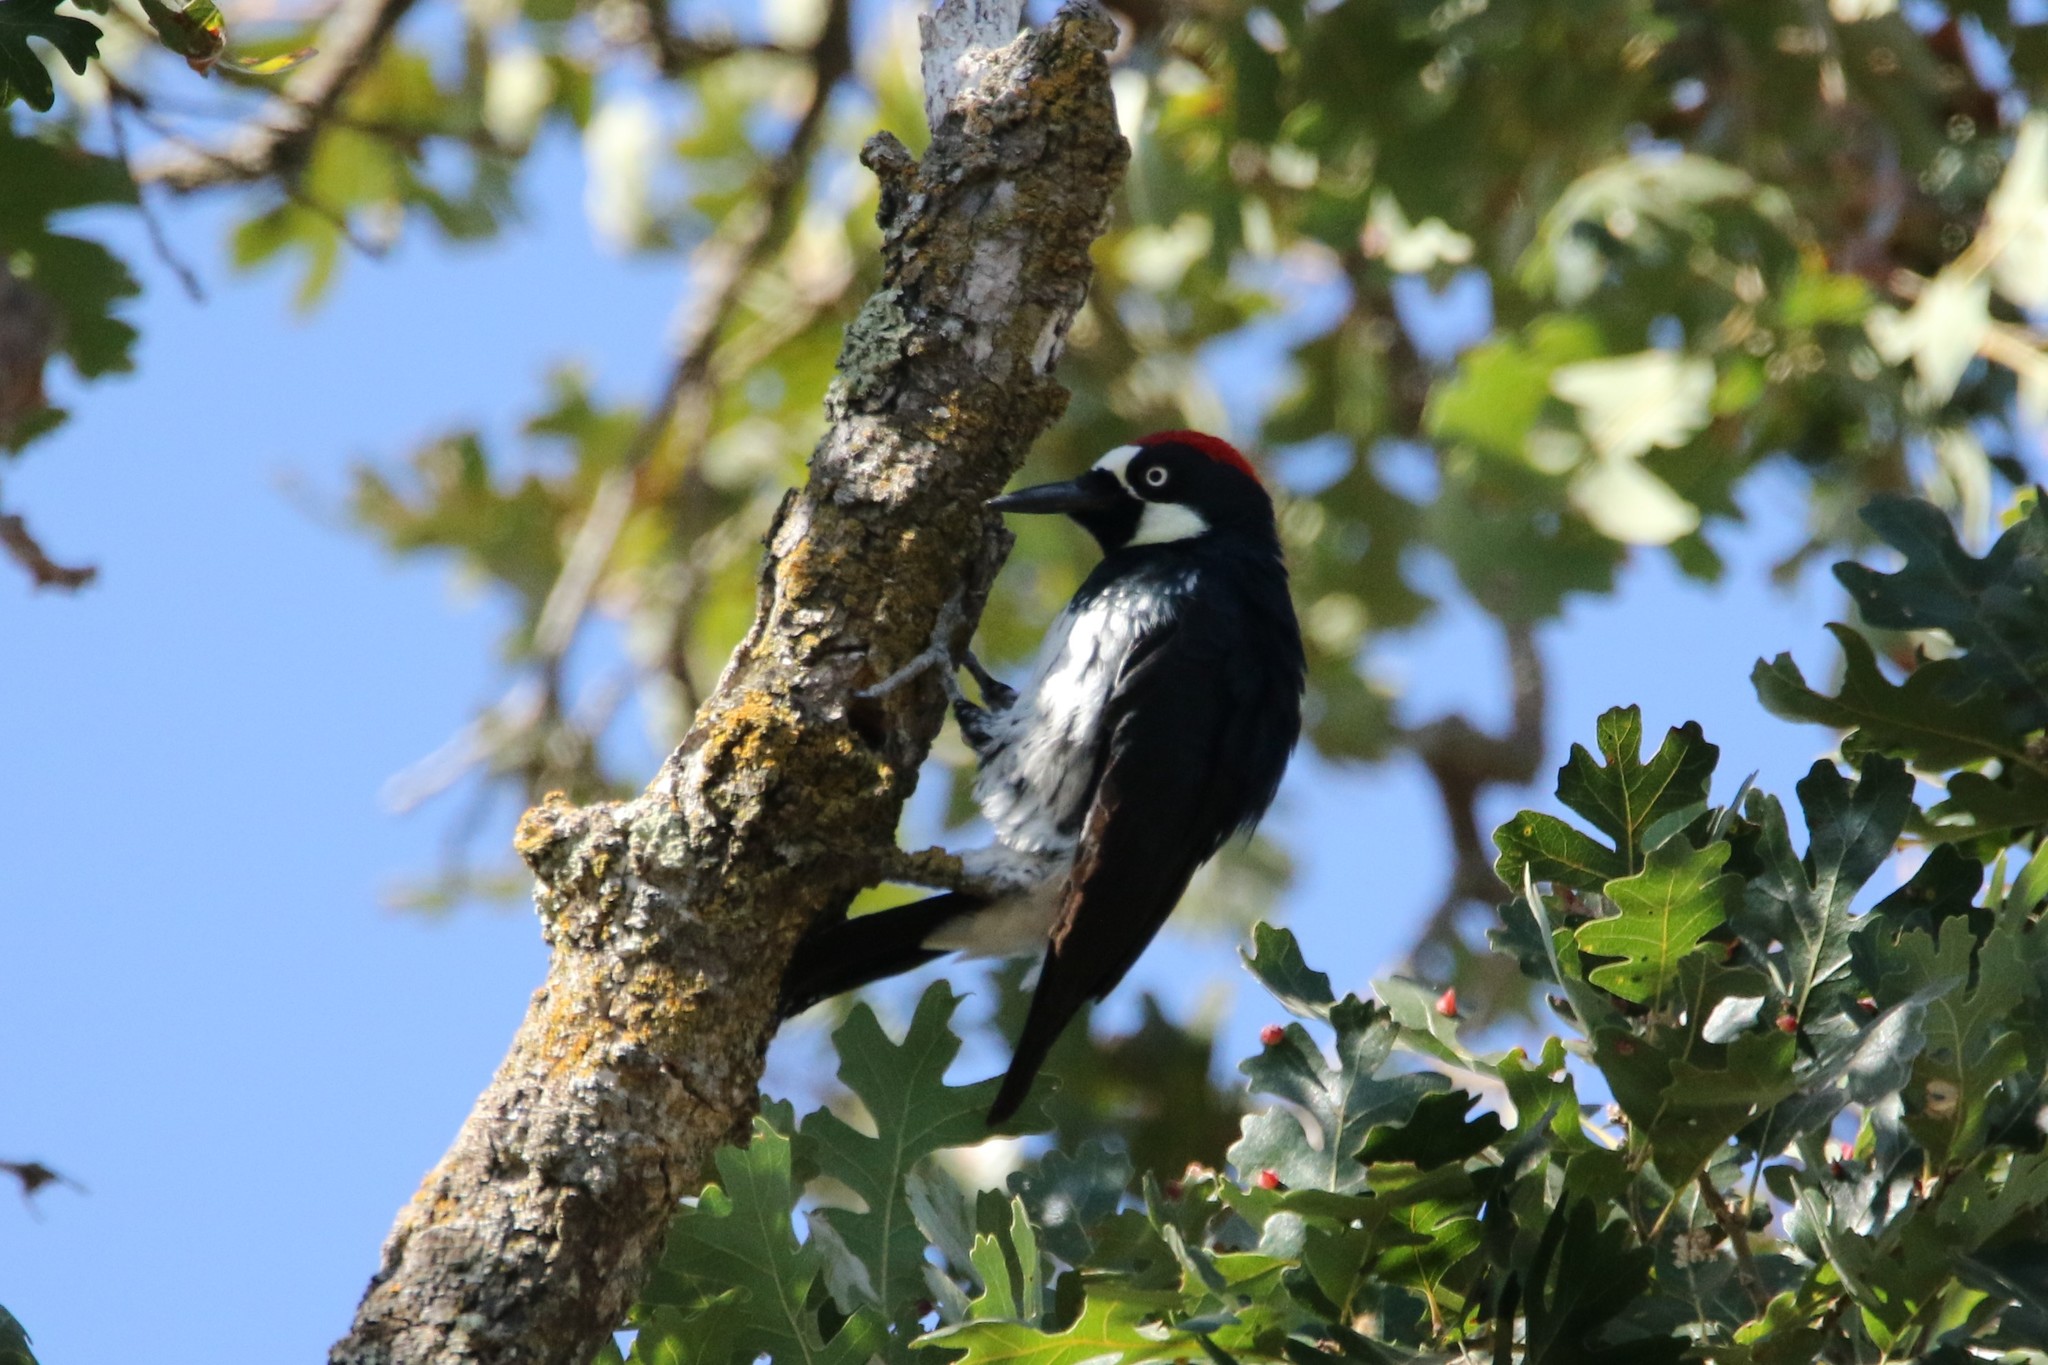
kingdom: Animalia
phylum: Chordata
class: Aves
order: Piciformes
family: Picidae
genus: Melanerpes
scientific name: Melanerpes formicivorus
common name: Acorn woodpecker
